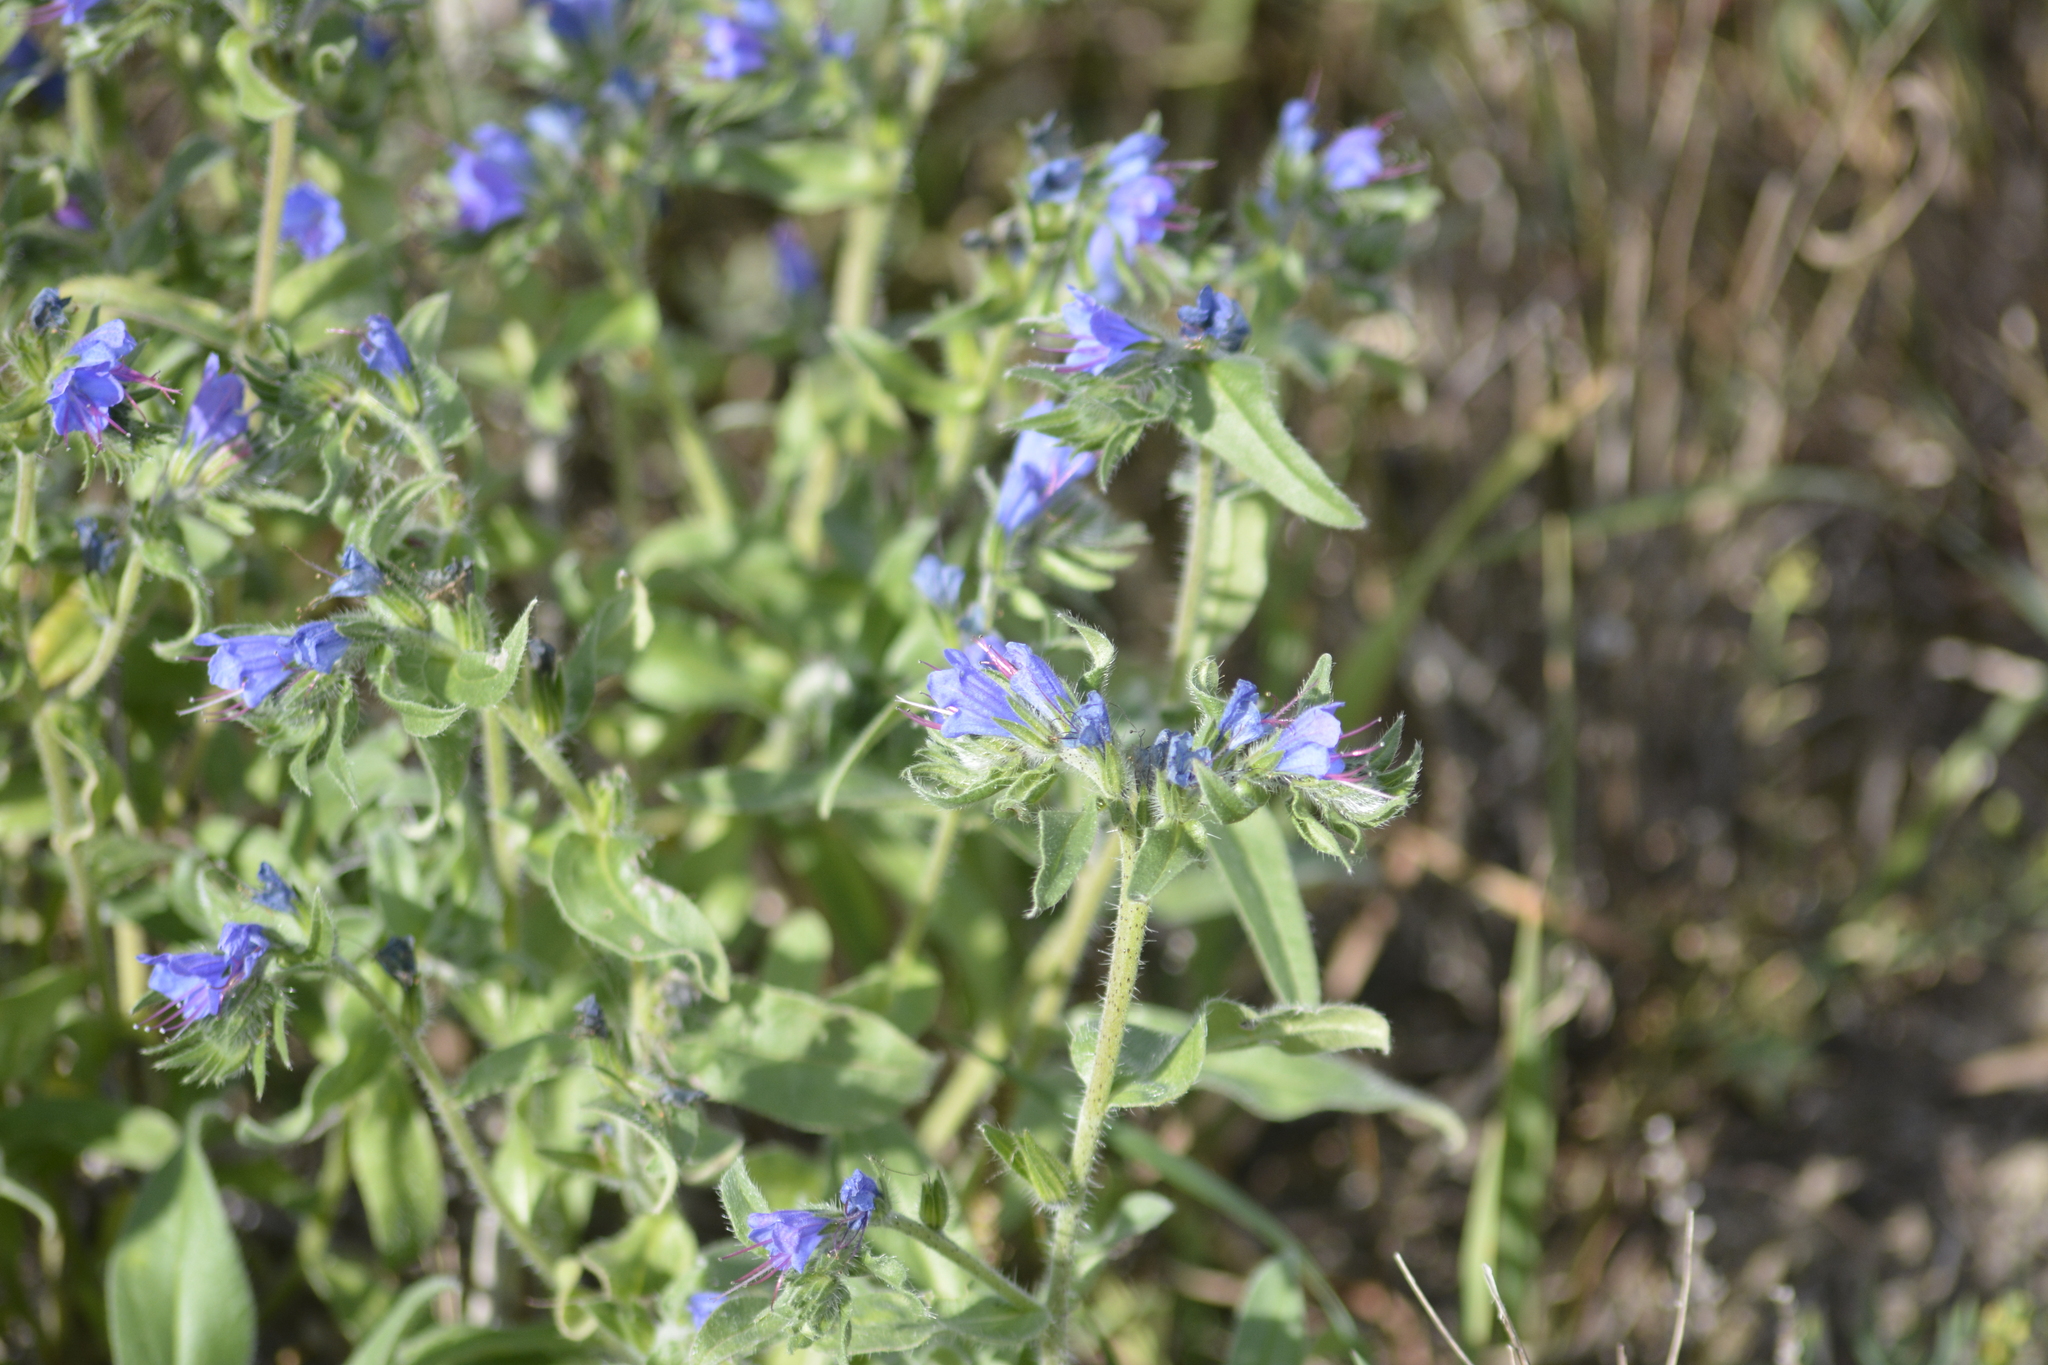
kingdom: Plantae
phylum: Tracheophyta
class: Magnoliopsida
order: Boraginales
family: Boraginaceae
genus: Echium
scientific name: Echium vulgare
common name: Common viper's bugloss
